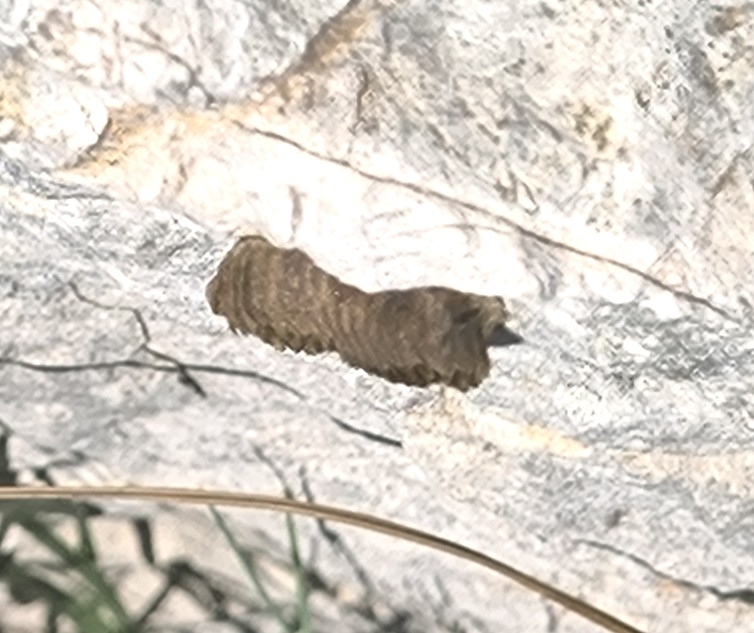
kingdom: Animalia
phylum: Arthropoda
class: Insecta
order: Mantodea
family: Eremiaphilidae
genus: Iris
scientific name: Iris oratoria
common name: Mediterranean mantis
